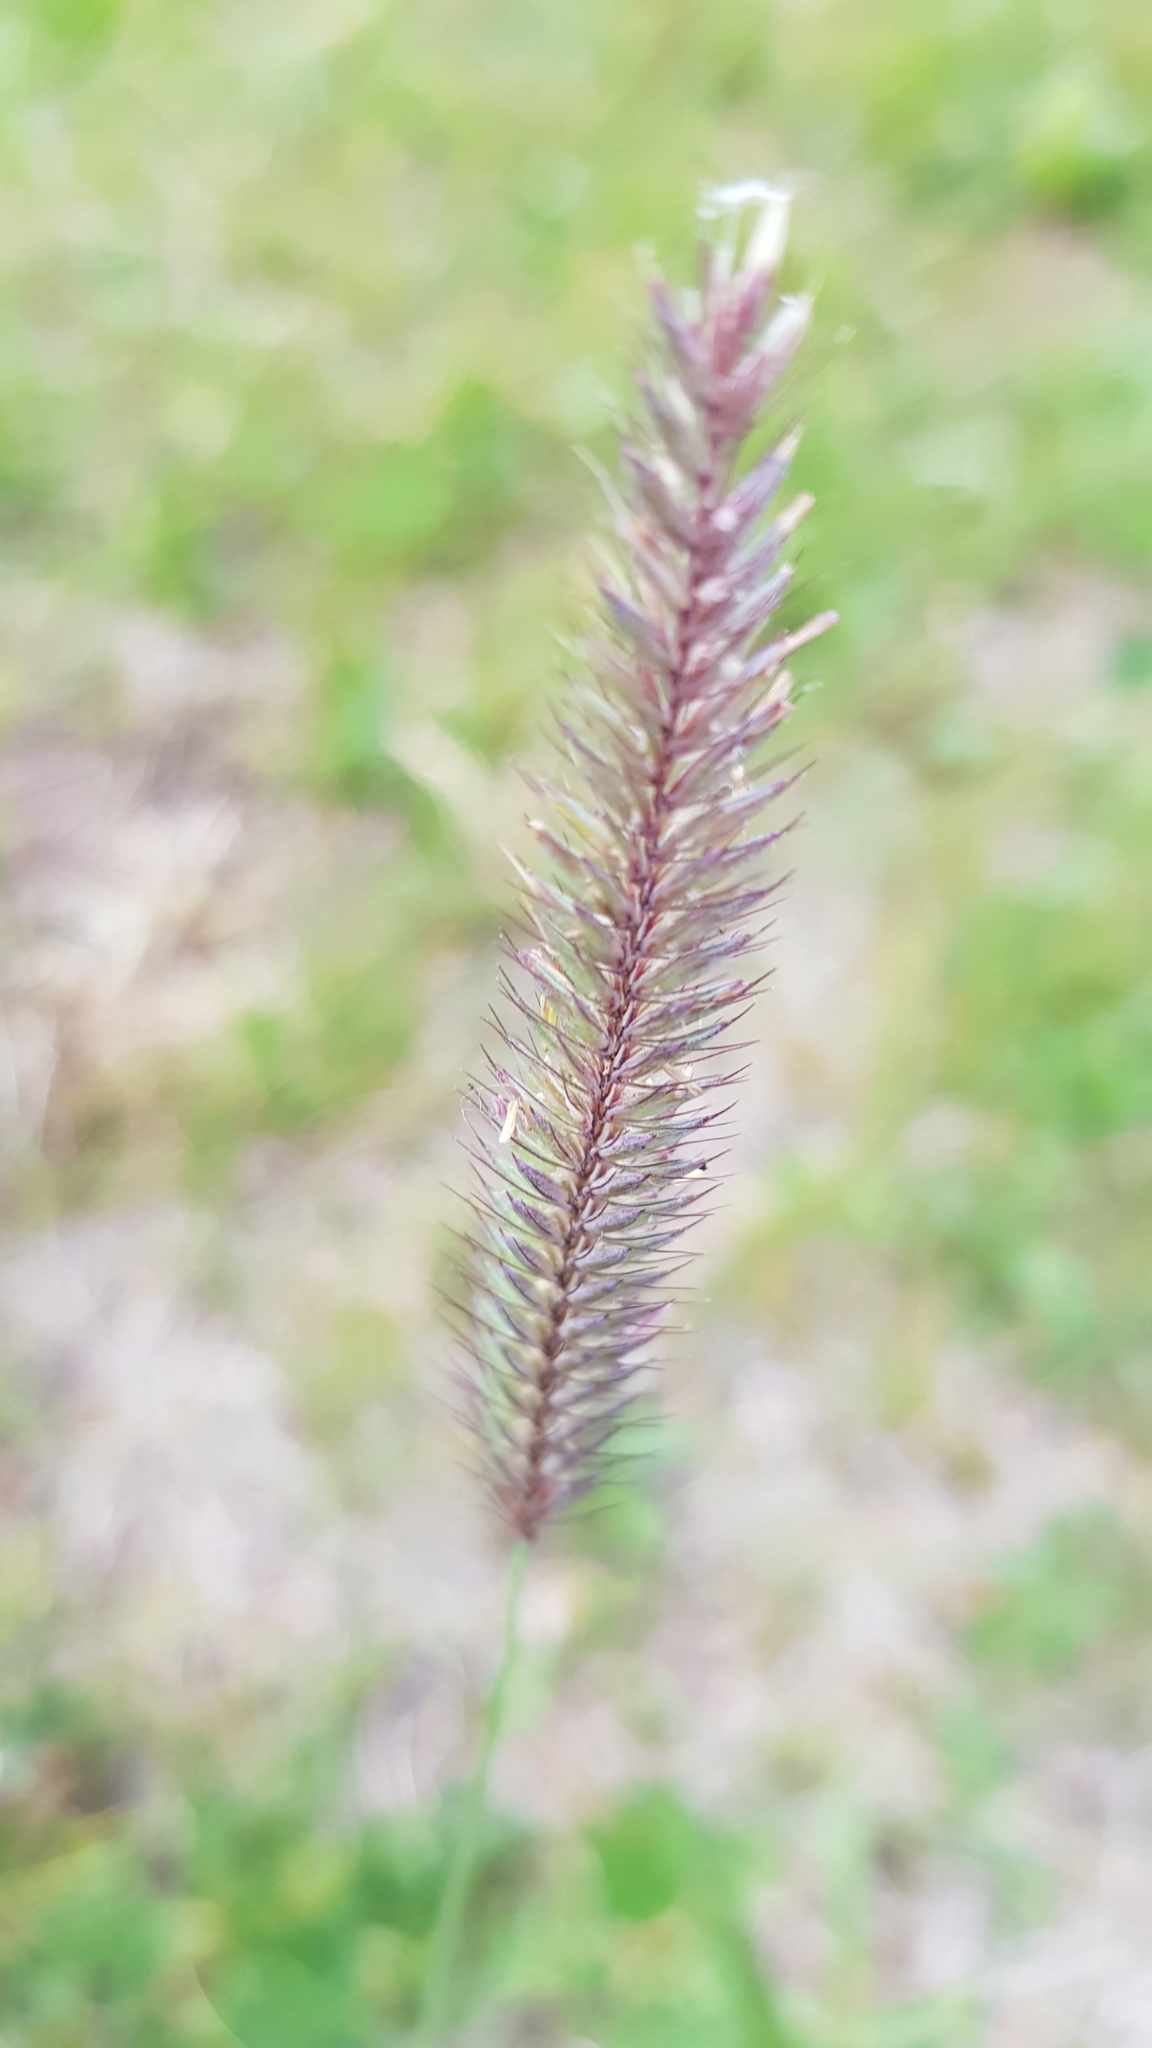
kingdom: Plantae
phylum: Tracheophyta
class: Liliopsida
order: Poales
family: Poaceae
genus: Hordeum
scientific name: Hordeum brevisubulatum
